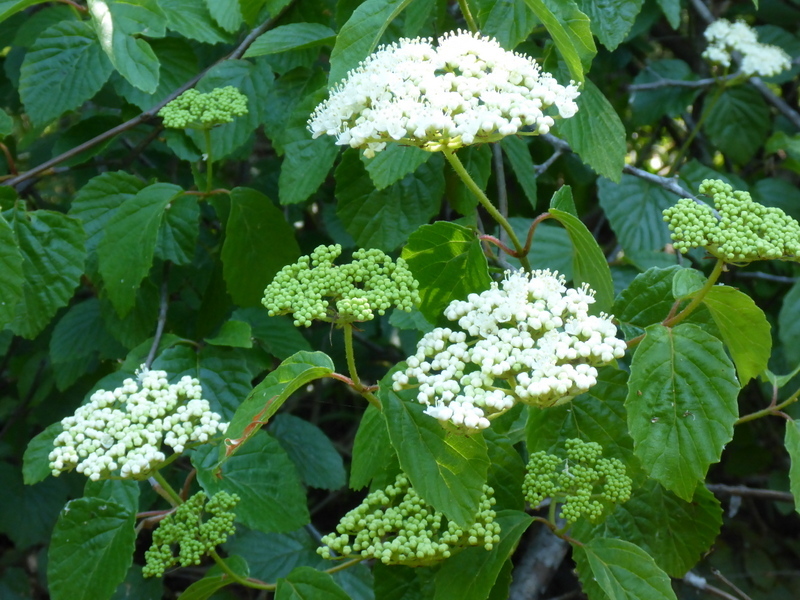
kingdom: Plantae
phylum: Tracheophyta
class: Magnoliopsida
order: Dipsacales
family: Viburnaceae
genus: Viburnum
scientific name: Viburnum scabrellum
